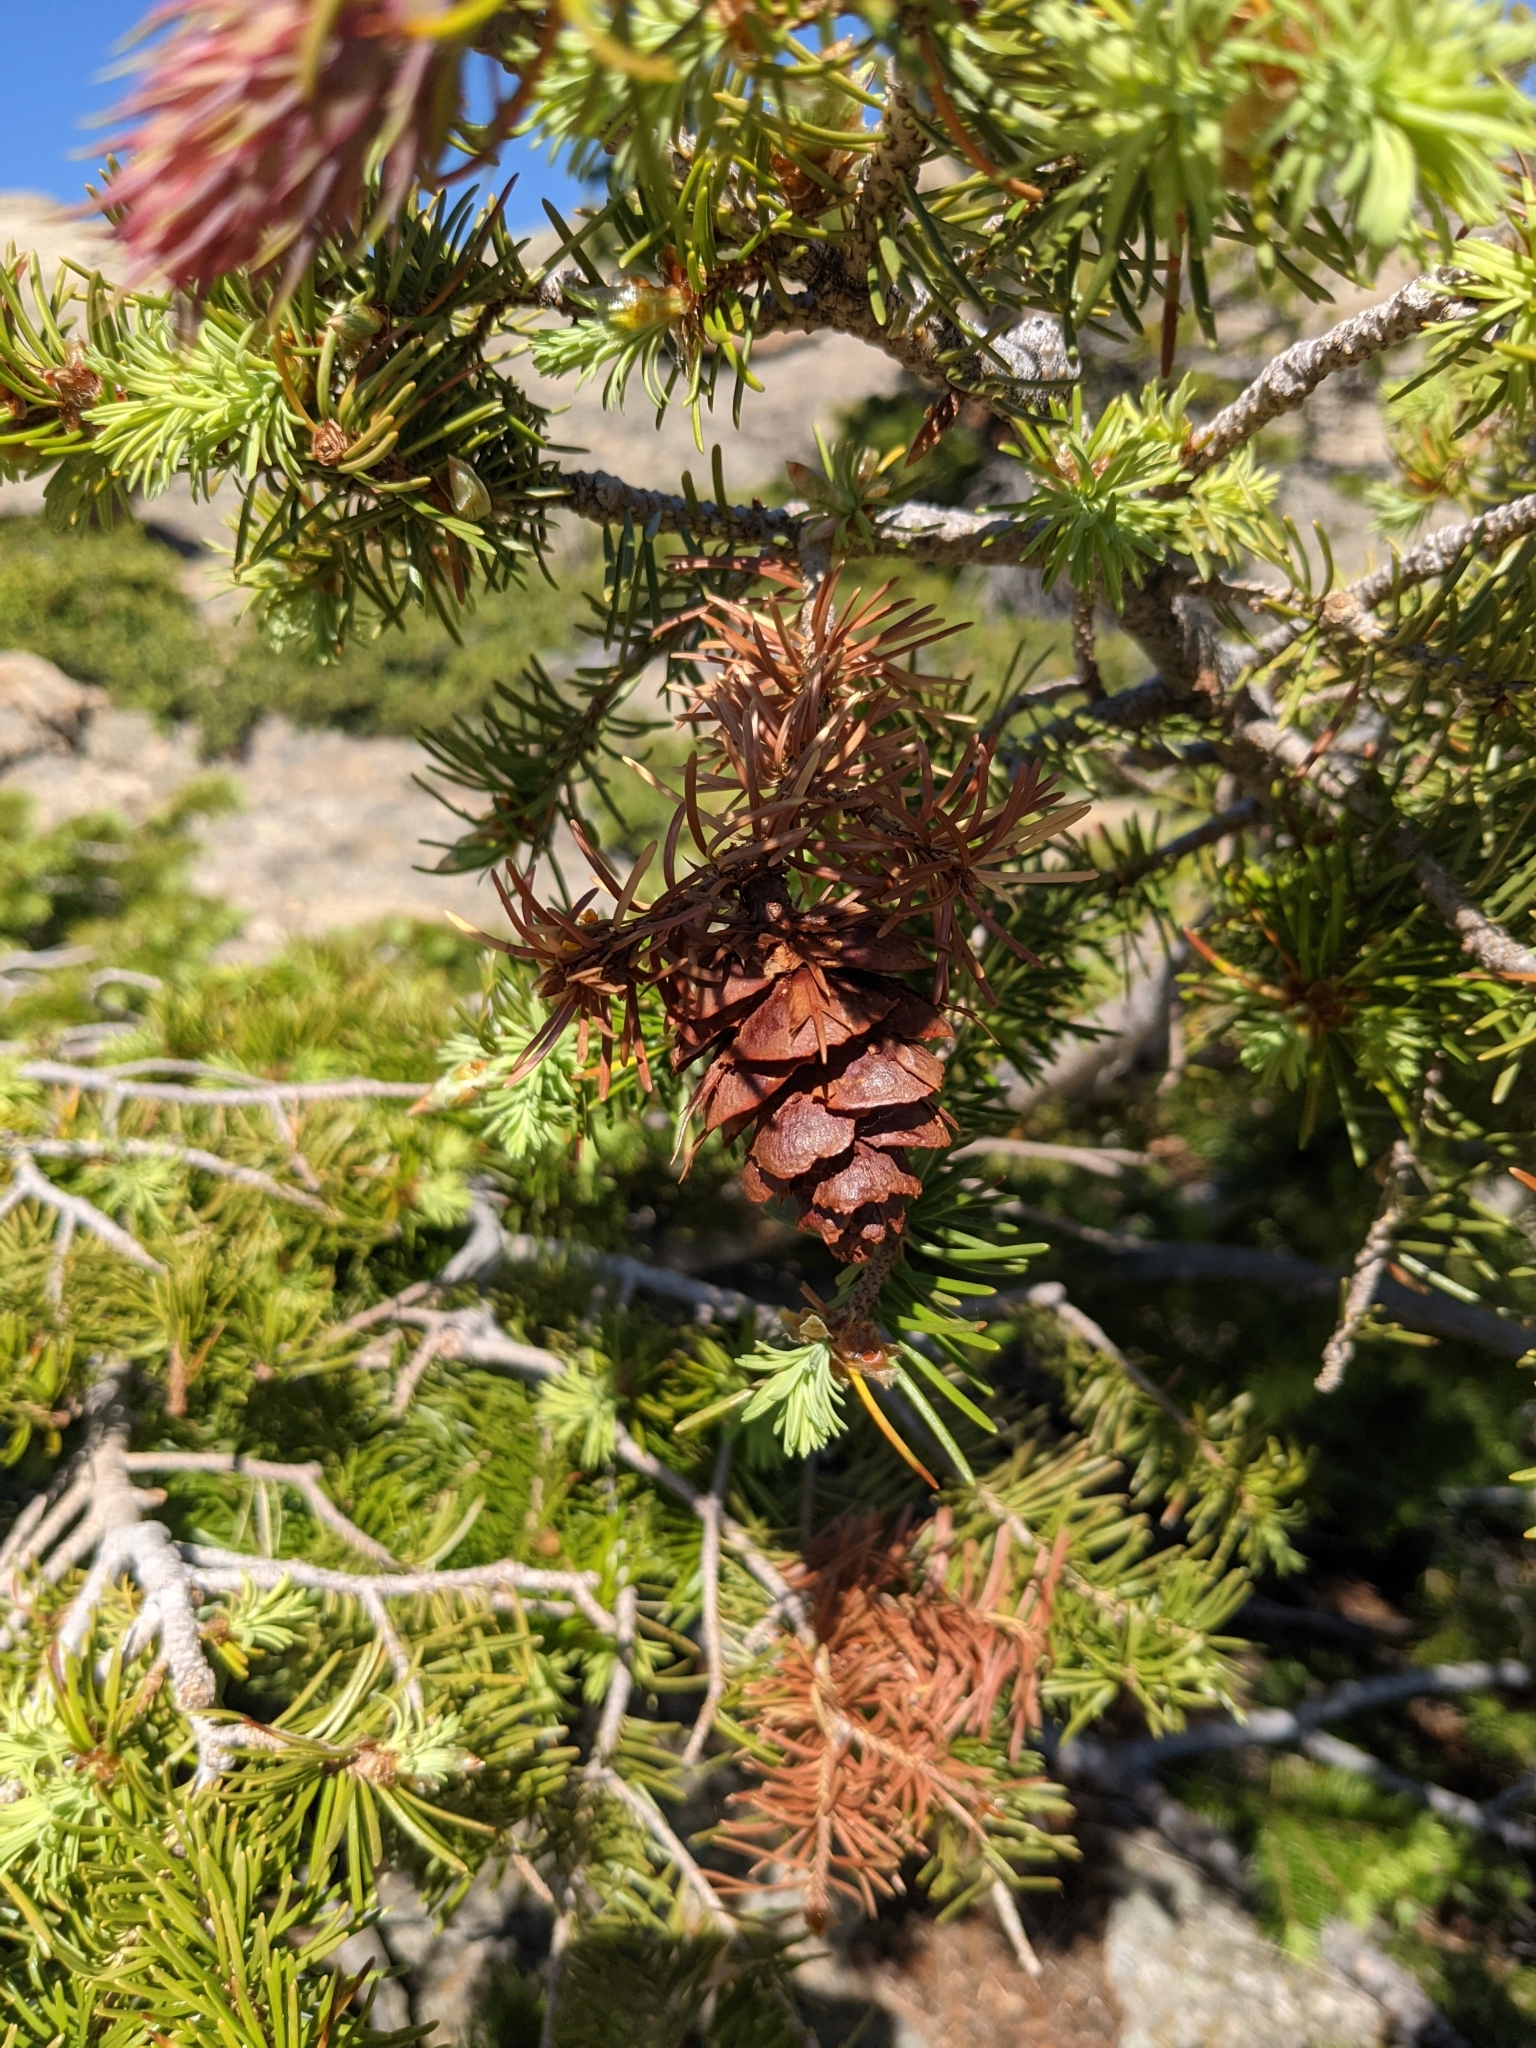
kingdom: Plantae
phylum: Tracheophyta
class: Pinopsida
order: Pinales
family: Pinaceae
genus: Pseudotsuga
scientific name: Pseudotsuga menziesii
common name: Douglas fir
